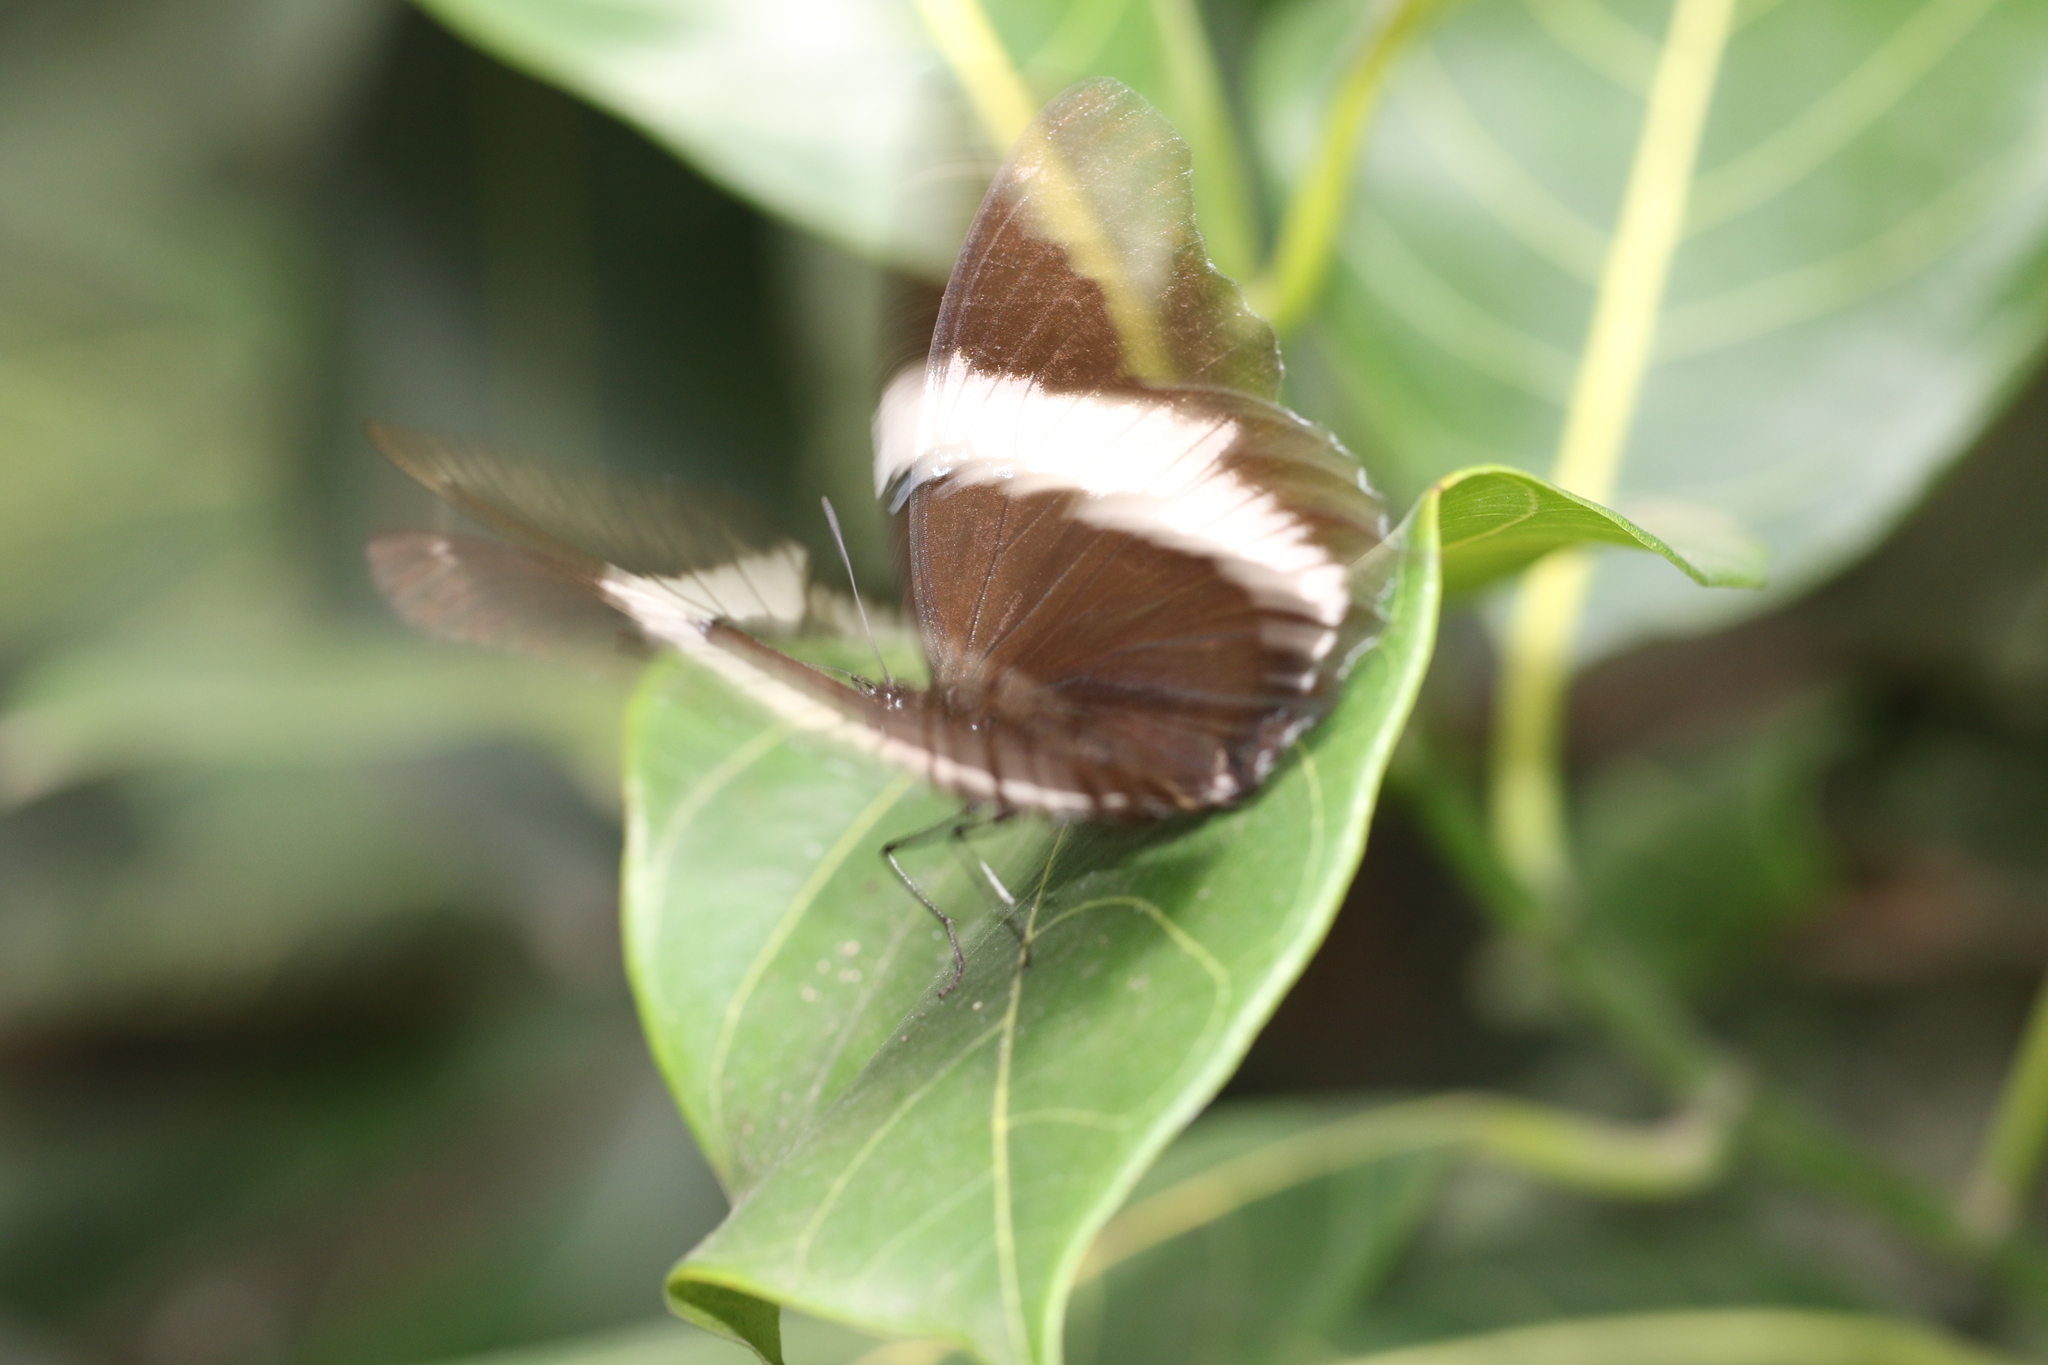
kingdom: Animalia
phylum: Arthropoda
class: Insecta
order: Lepidoptera
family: Nymphalidae
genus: Siproeta
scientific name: Siproeta epaphus
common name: Rusty-tipped page
